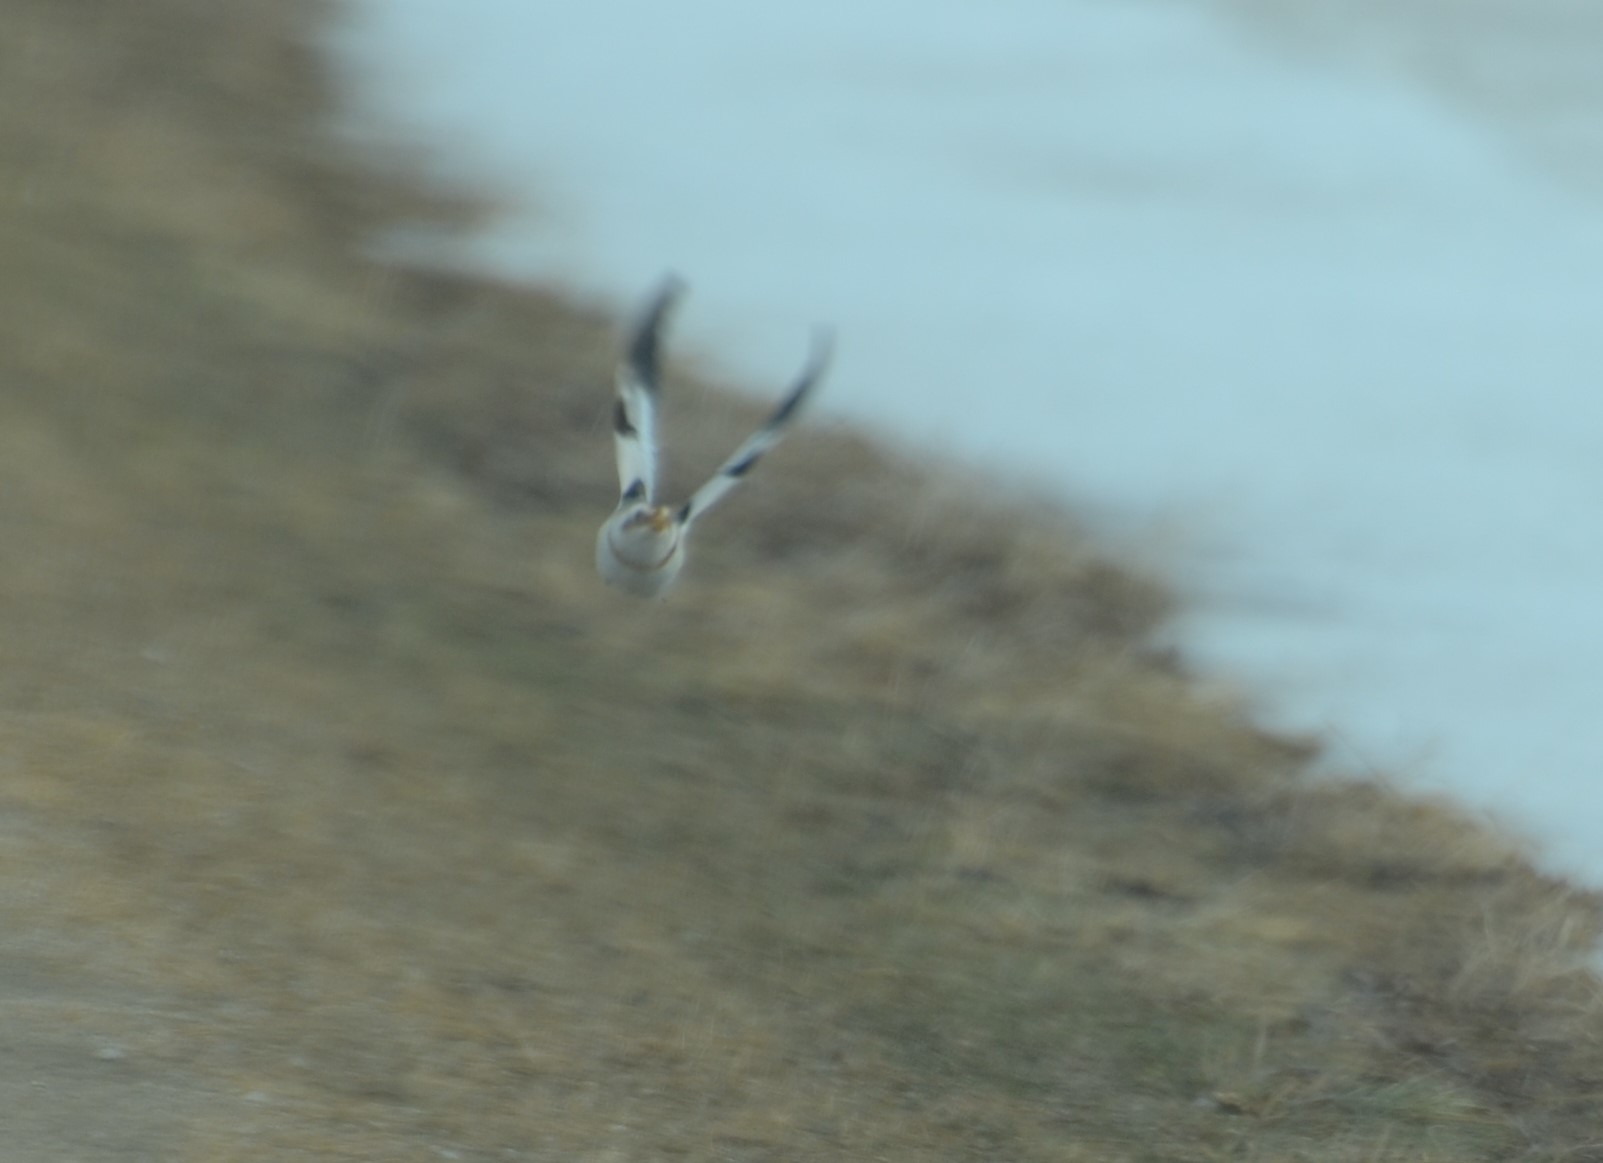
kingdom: Animalia
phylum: Chordata
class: Aves
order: Passeriformes
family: Calcariidae
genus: Plectrophenax
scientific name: Plectrophenax nivalis
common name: Snow bunting
